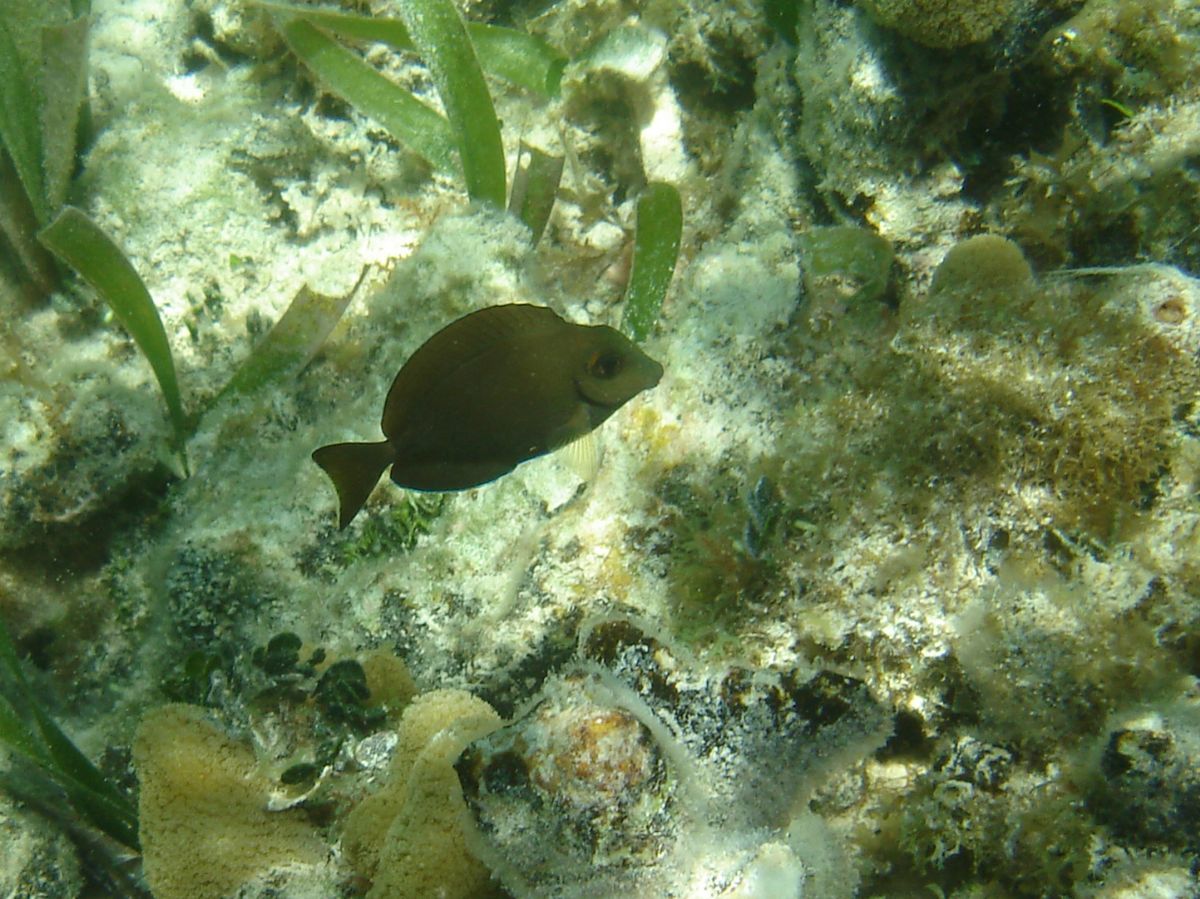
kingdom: Animalia
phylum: Chordata
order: Perciformes
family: Acanthuridae
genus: Acanthurus
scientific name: Acanthurus bahianus
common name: Ocean surgeon
